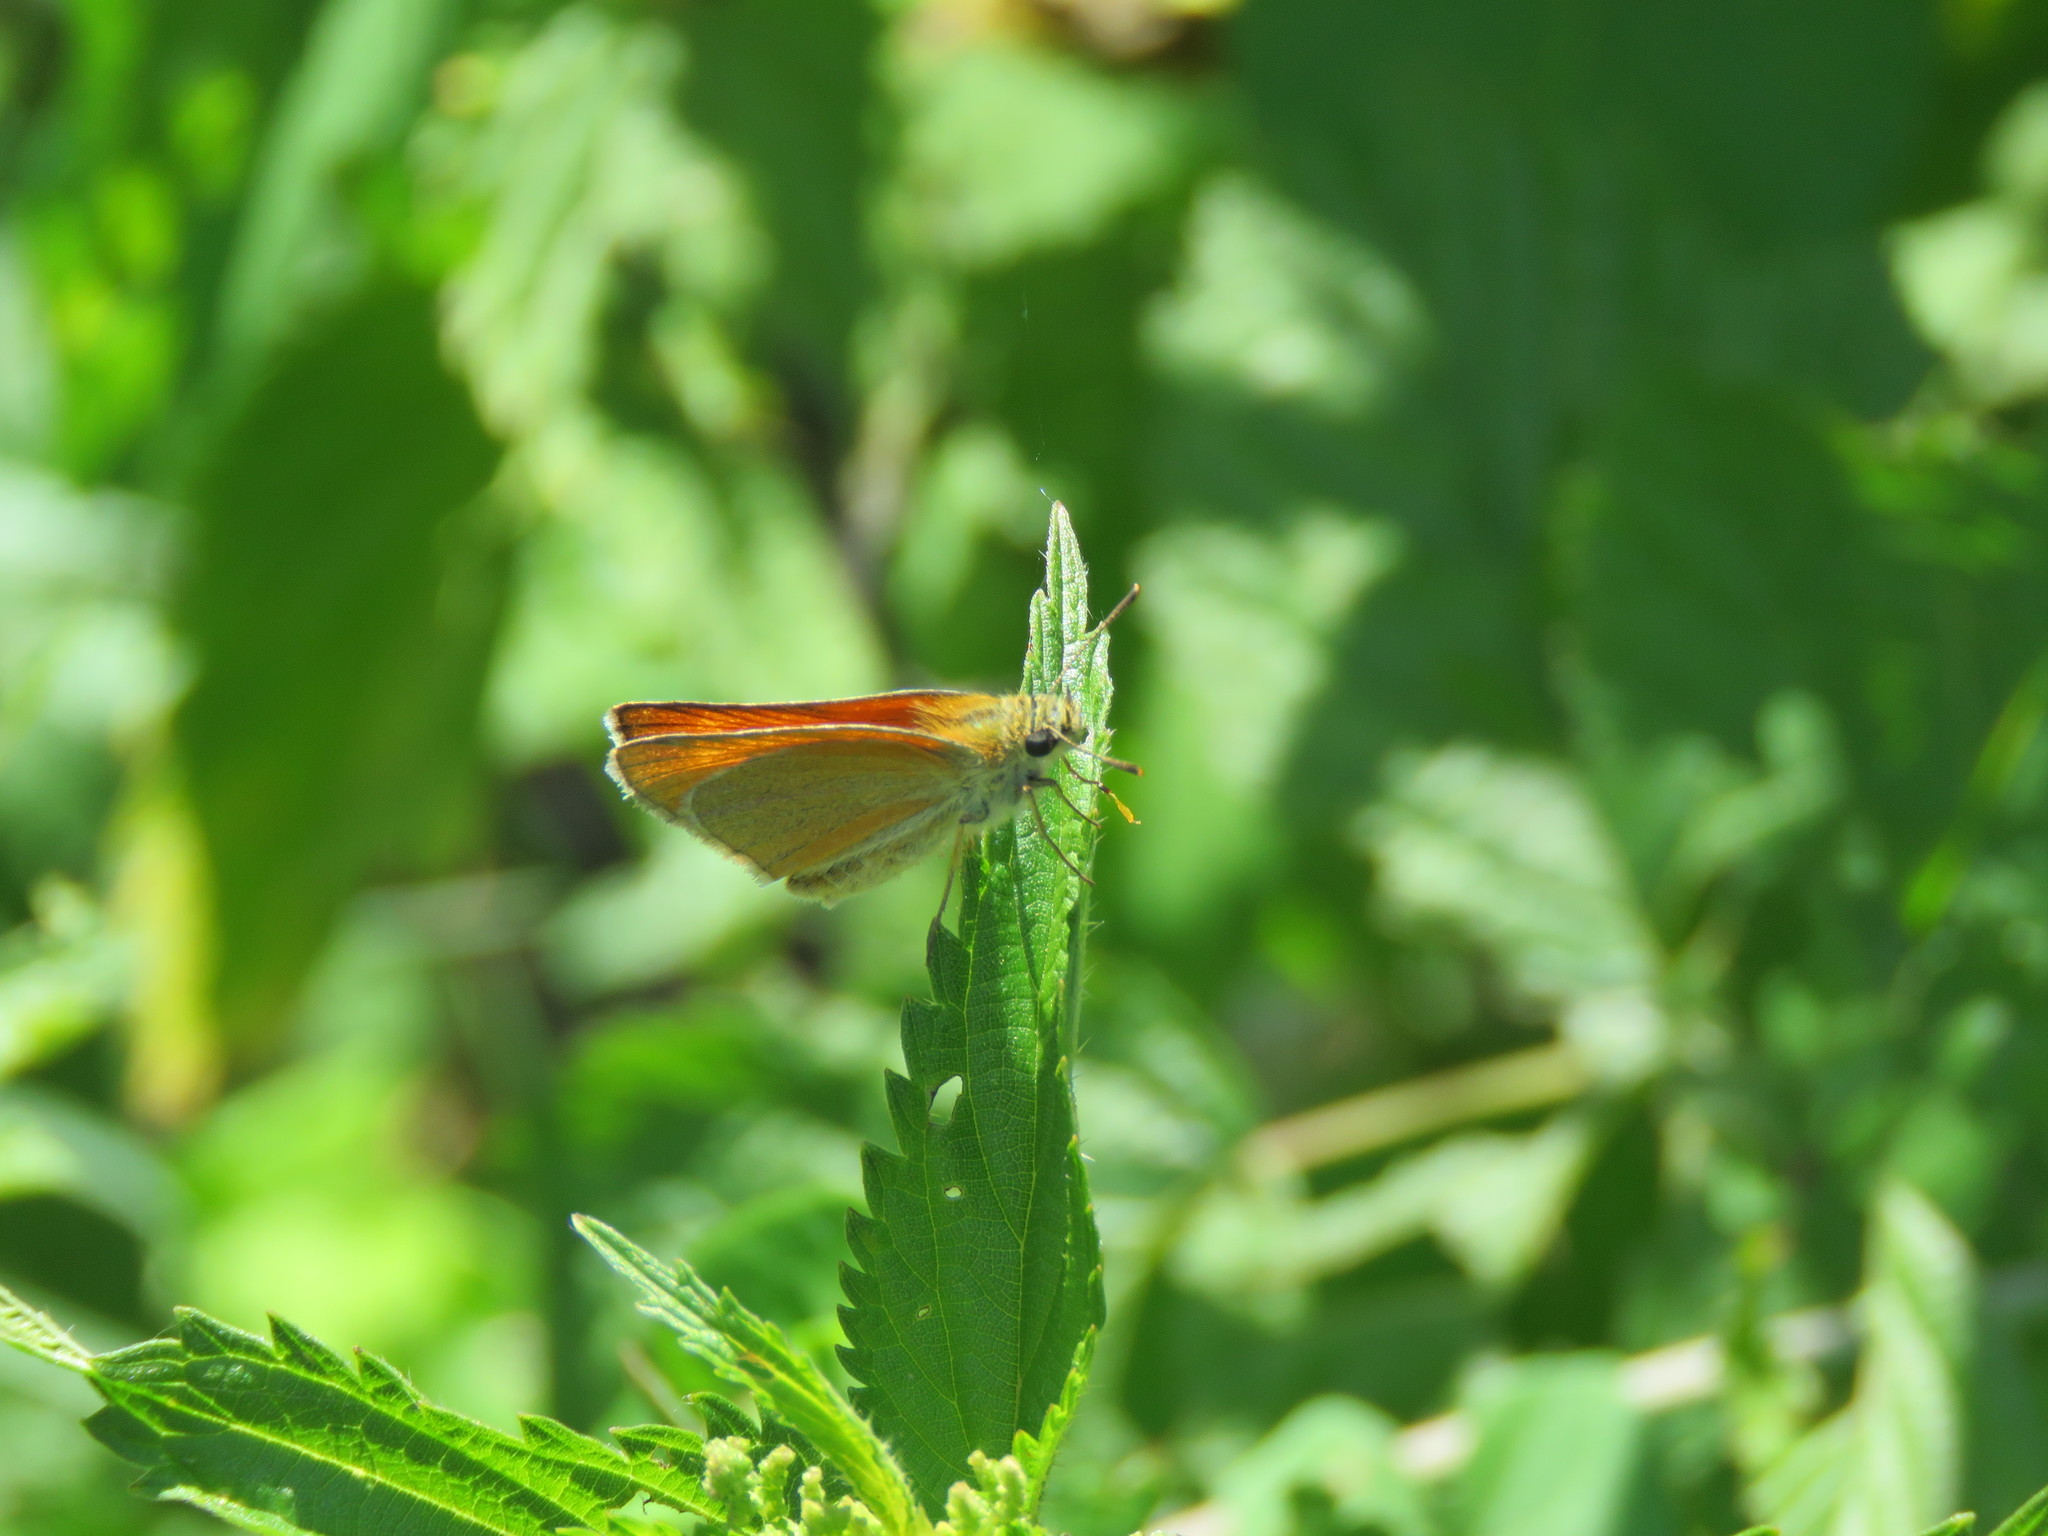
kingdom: Animalia
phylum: Arthropoda
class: Insecta
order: Lepidoptera
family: Hesperiidae
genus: Thymelicus
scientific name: Thymelicus sylvestris
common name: Small skipper
